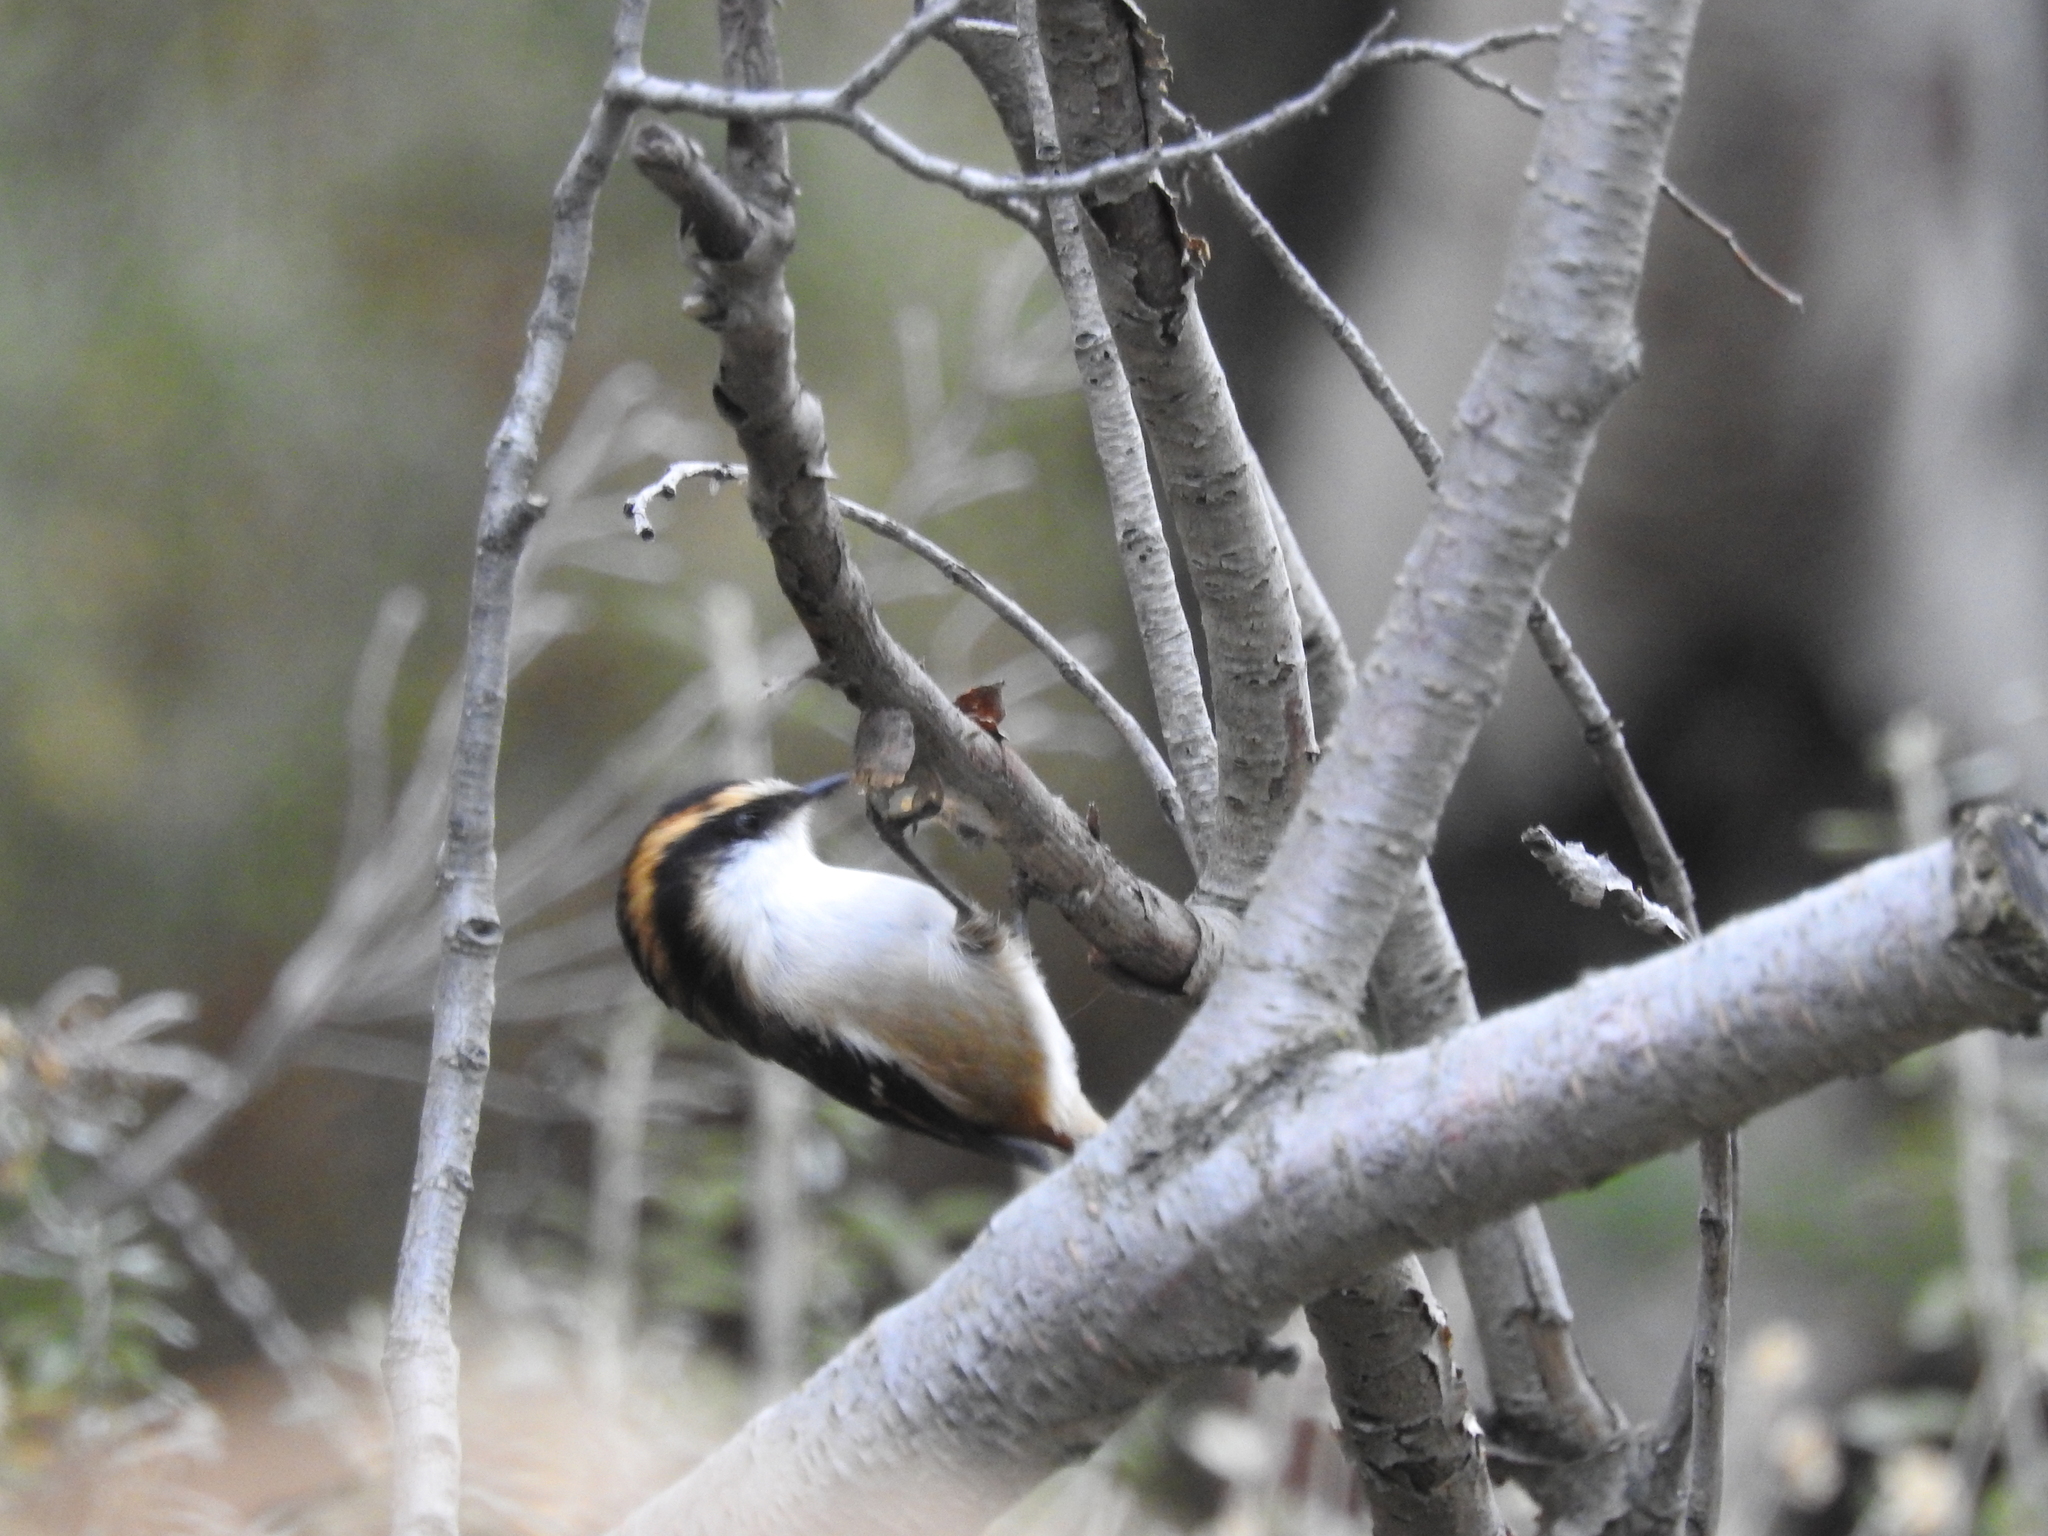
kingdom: Animalia
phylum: Chordata
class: Aves
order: Passeriformes
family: Furnariidae
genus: Aphrastura
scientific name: Aphrastura spinicauda
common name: Thorn-tailed rayadito
